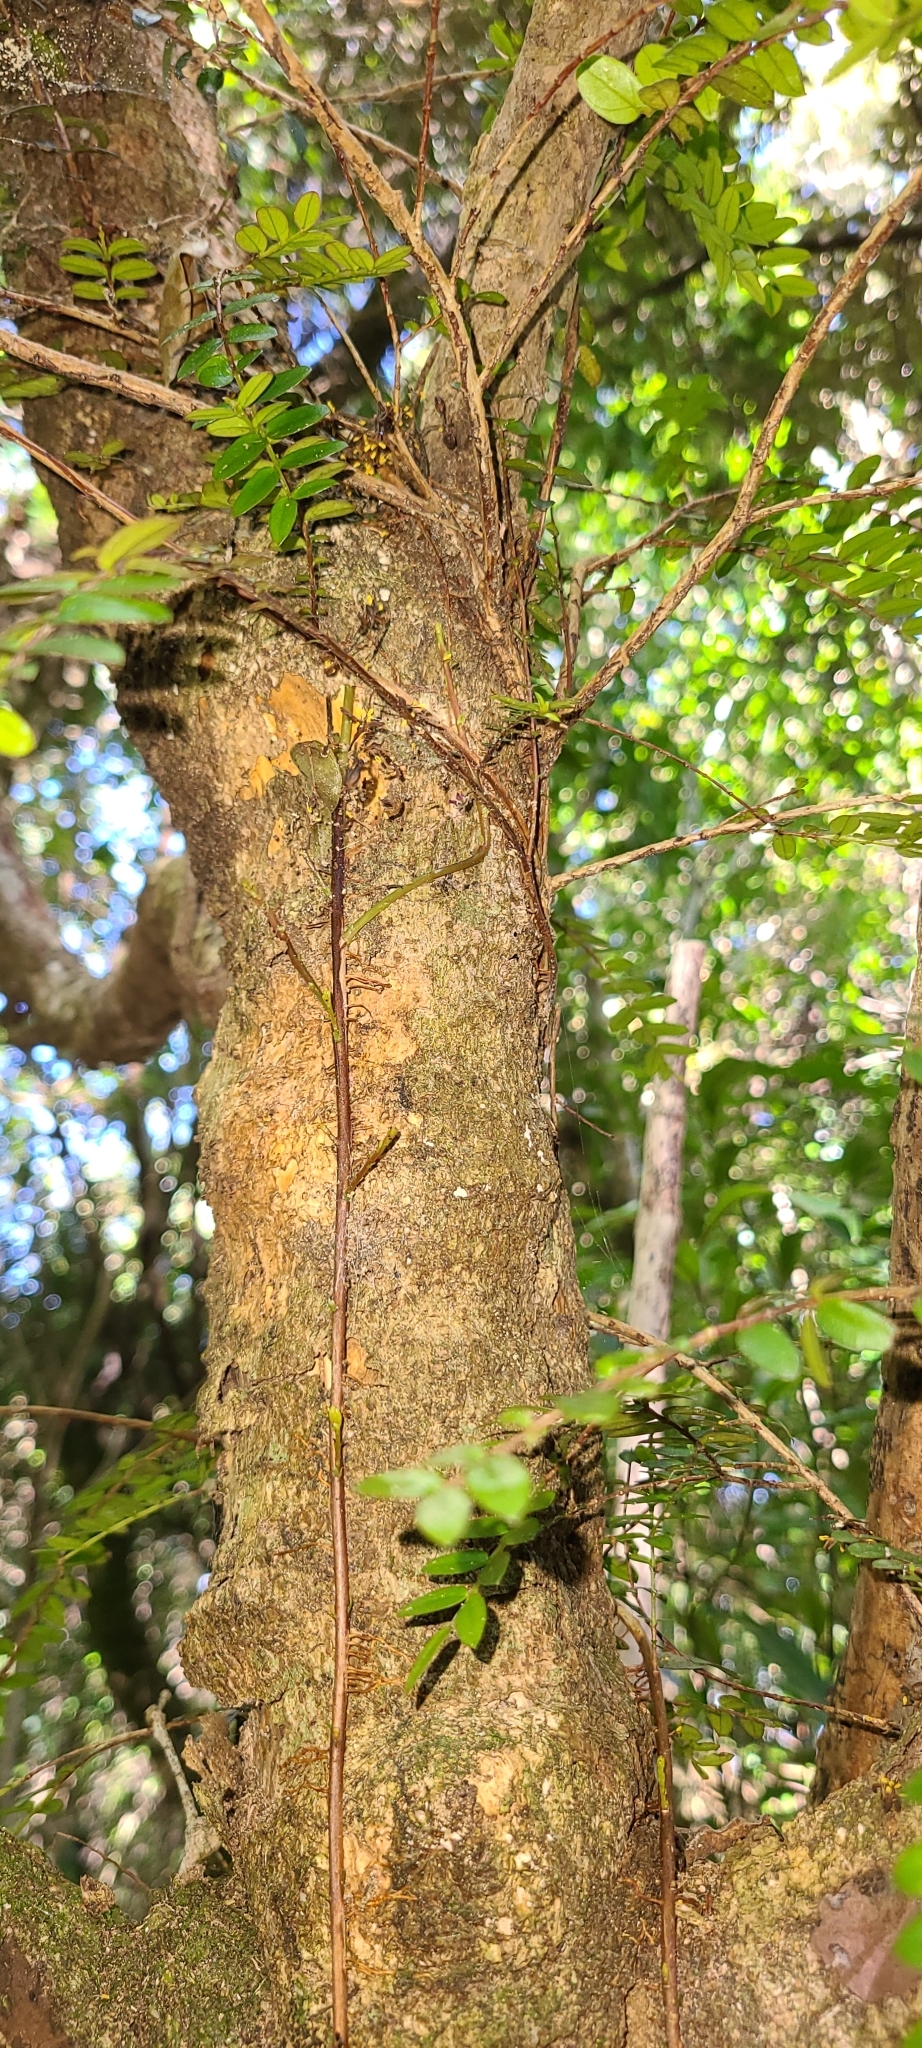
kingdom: Plantae
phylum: Tracheophyta
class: Magnoliopsida
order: Myrtales
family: Myrtaceae
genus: Metrosideros
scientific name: Metrosideros diffusa
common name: Small ratavine
